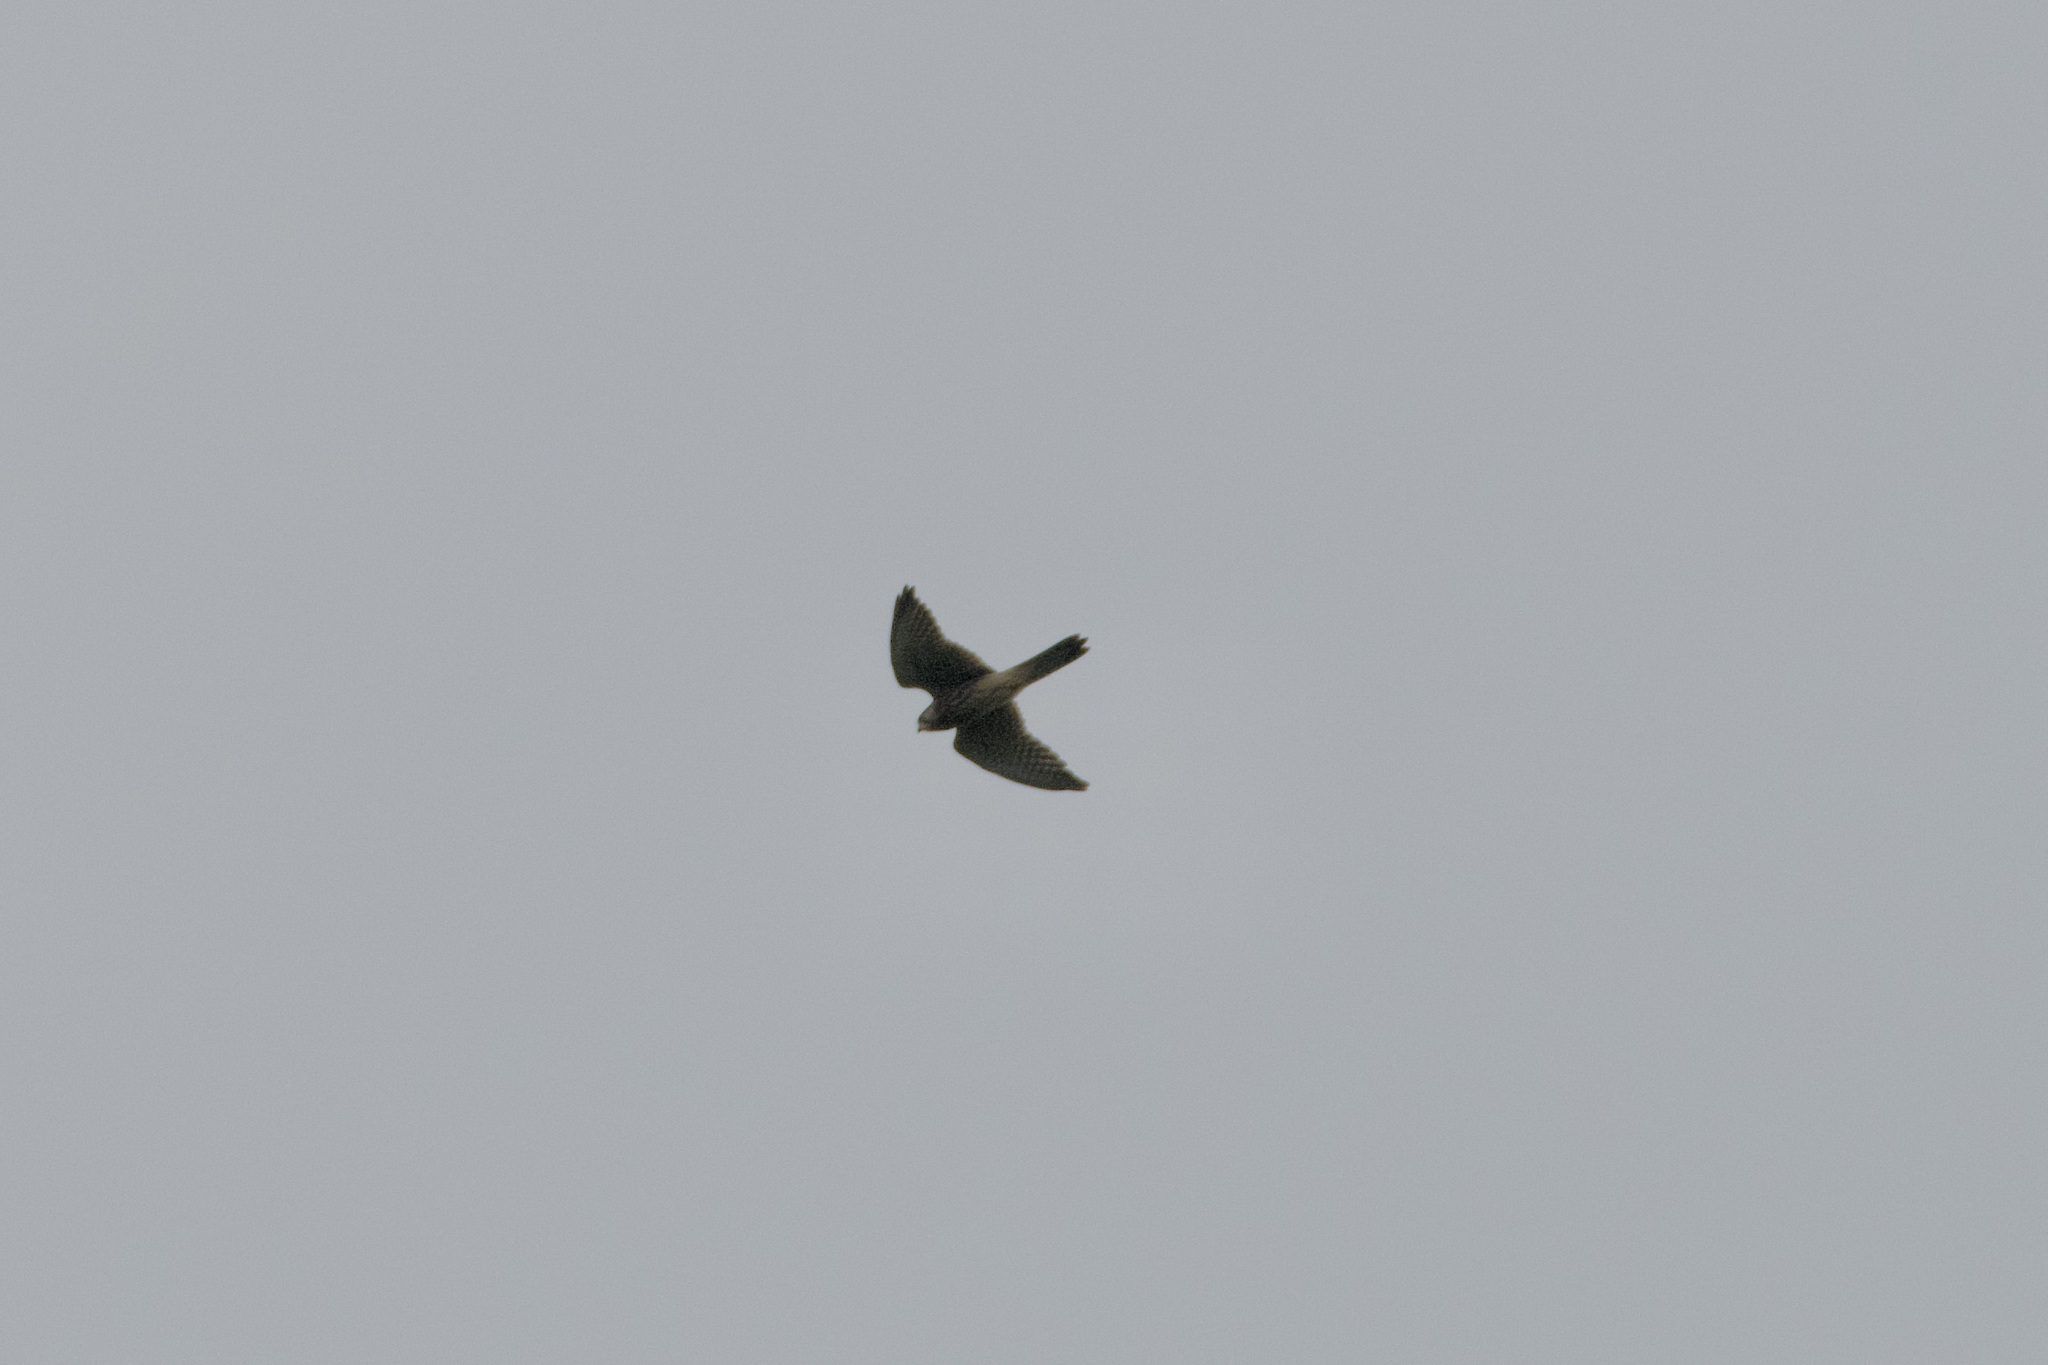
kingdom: Animalia
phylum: Chordata
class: Aves
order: Falconiformes
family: Falconidae
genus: Falco
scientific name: Falco tinnunculus
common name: Common kestrel
